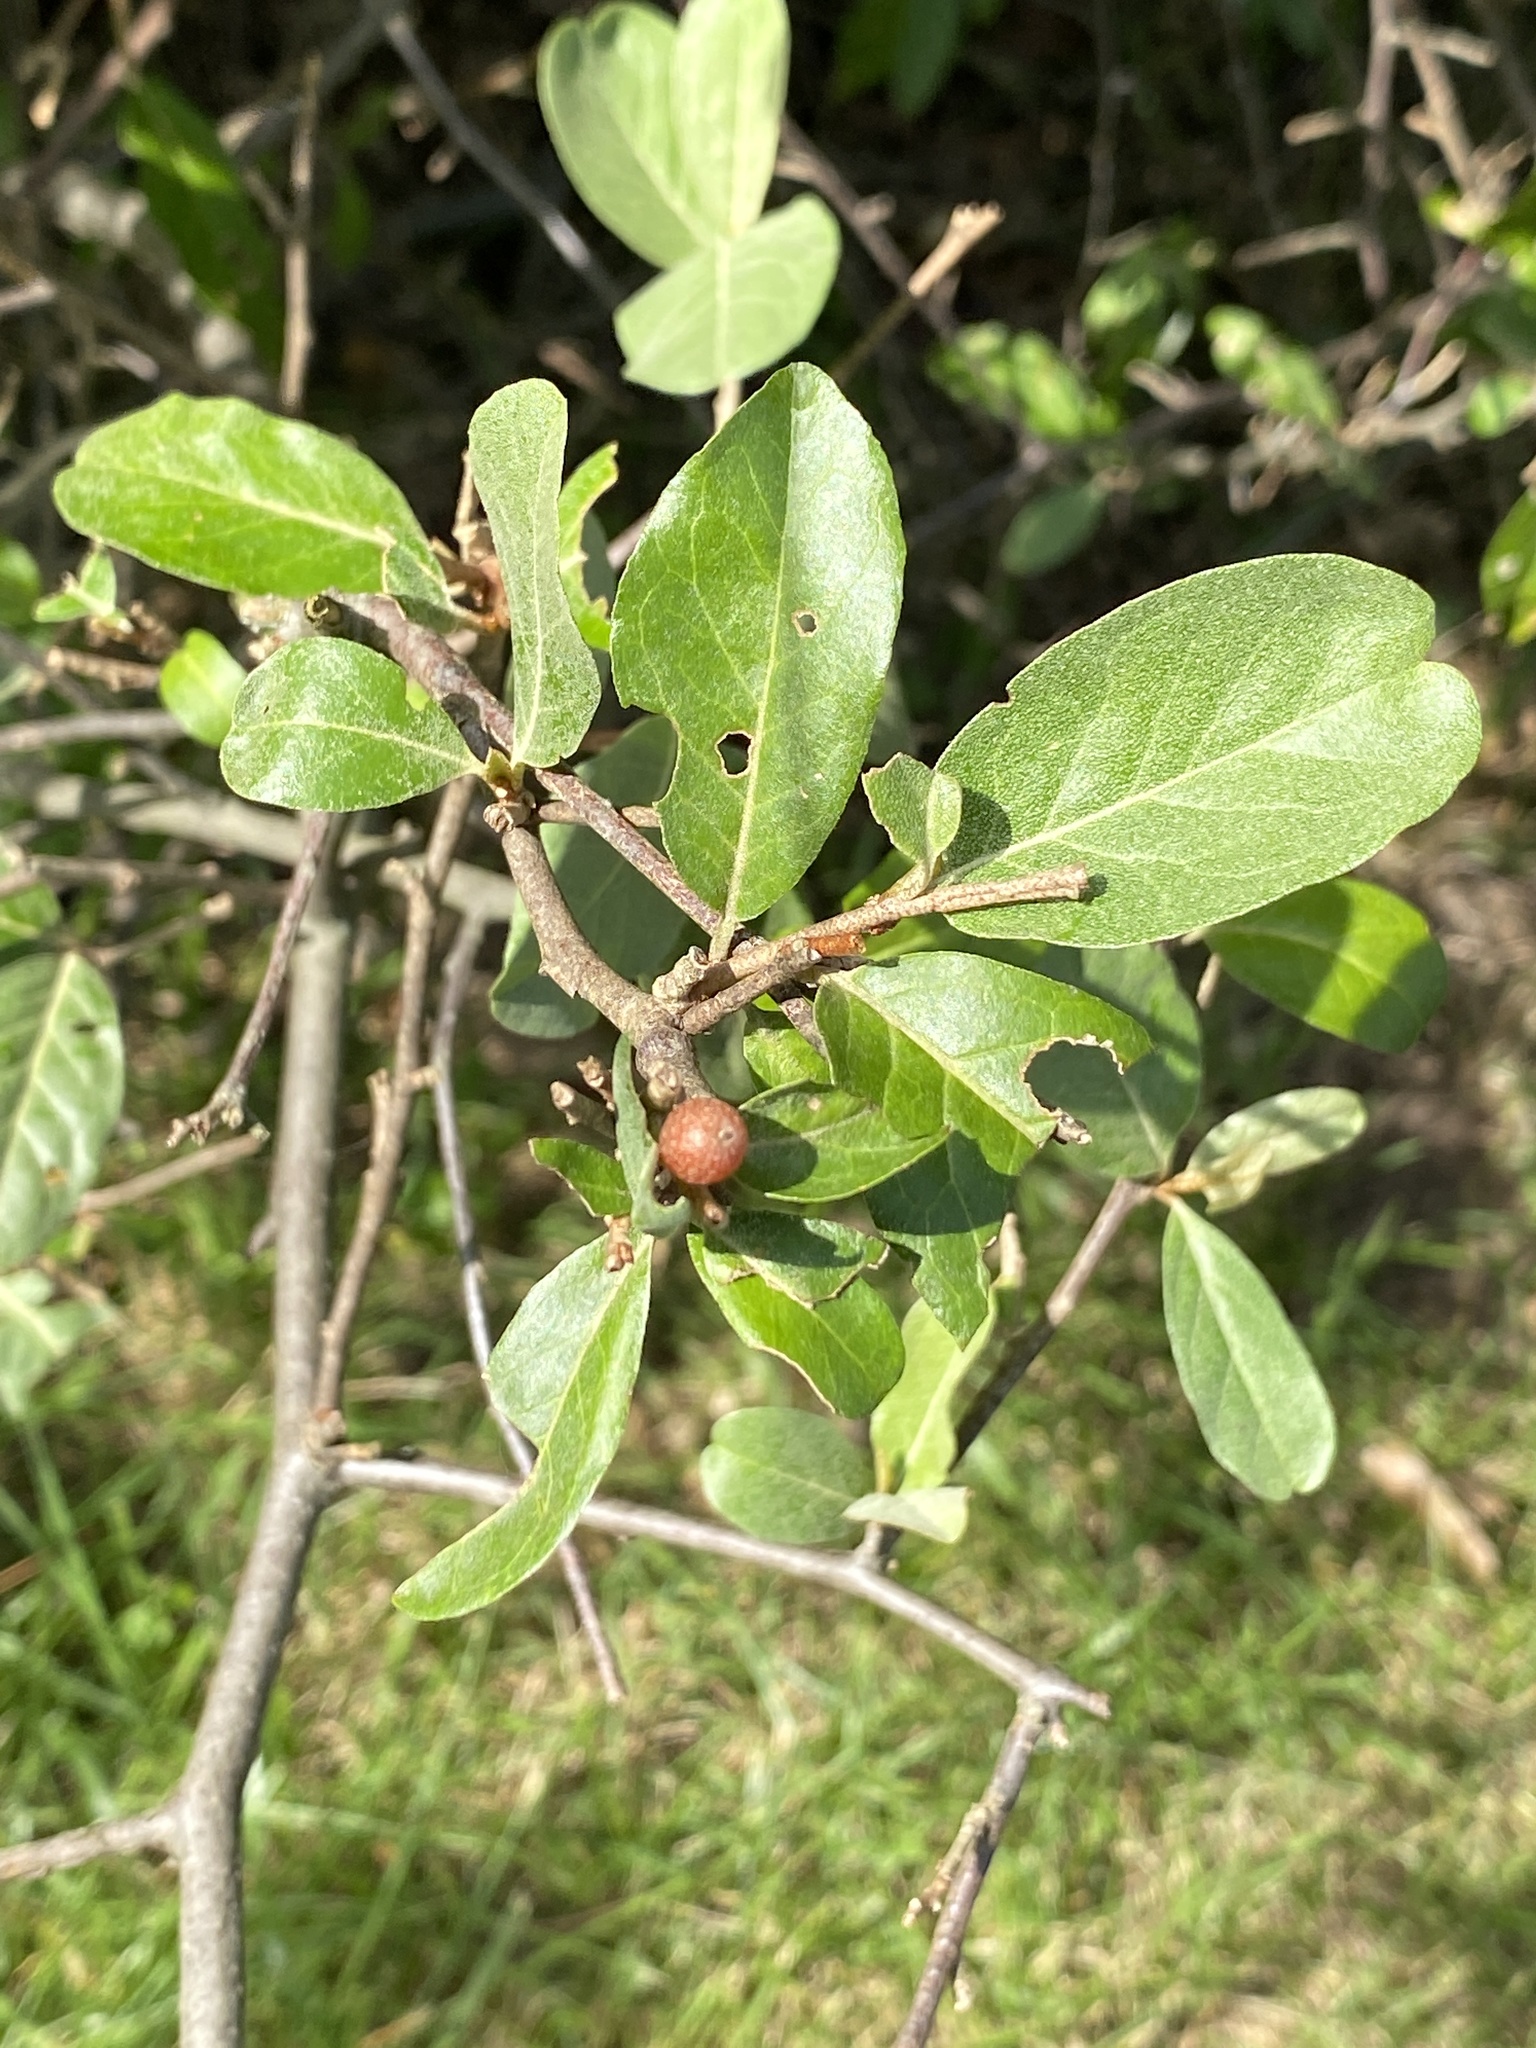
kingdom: Plantae
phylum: Tracheophyta
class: Magnoliopsida
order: Rosales
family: Elaeagnaceae
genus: Elaeagnus
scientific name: Elaeagnus umbellata
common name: Autumn olive
